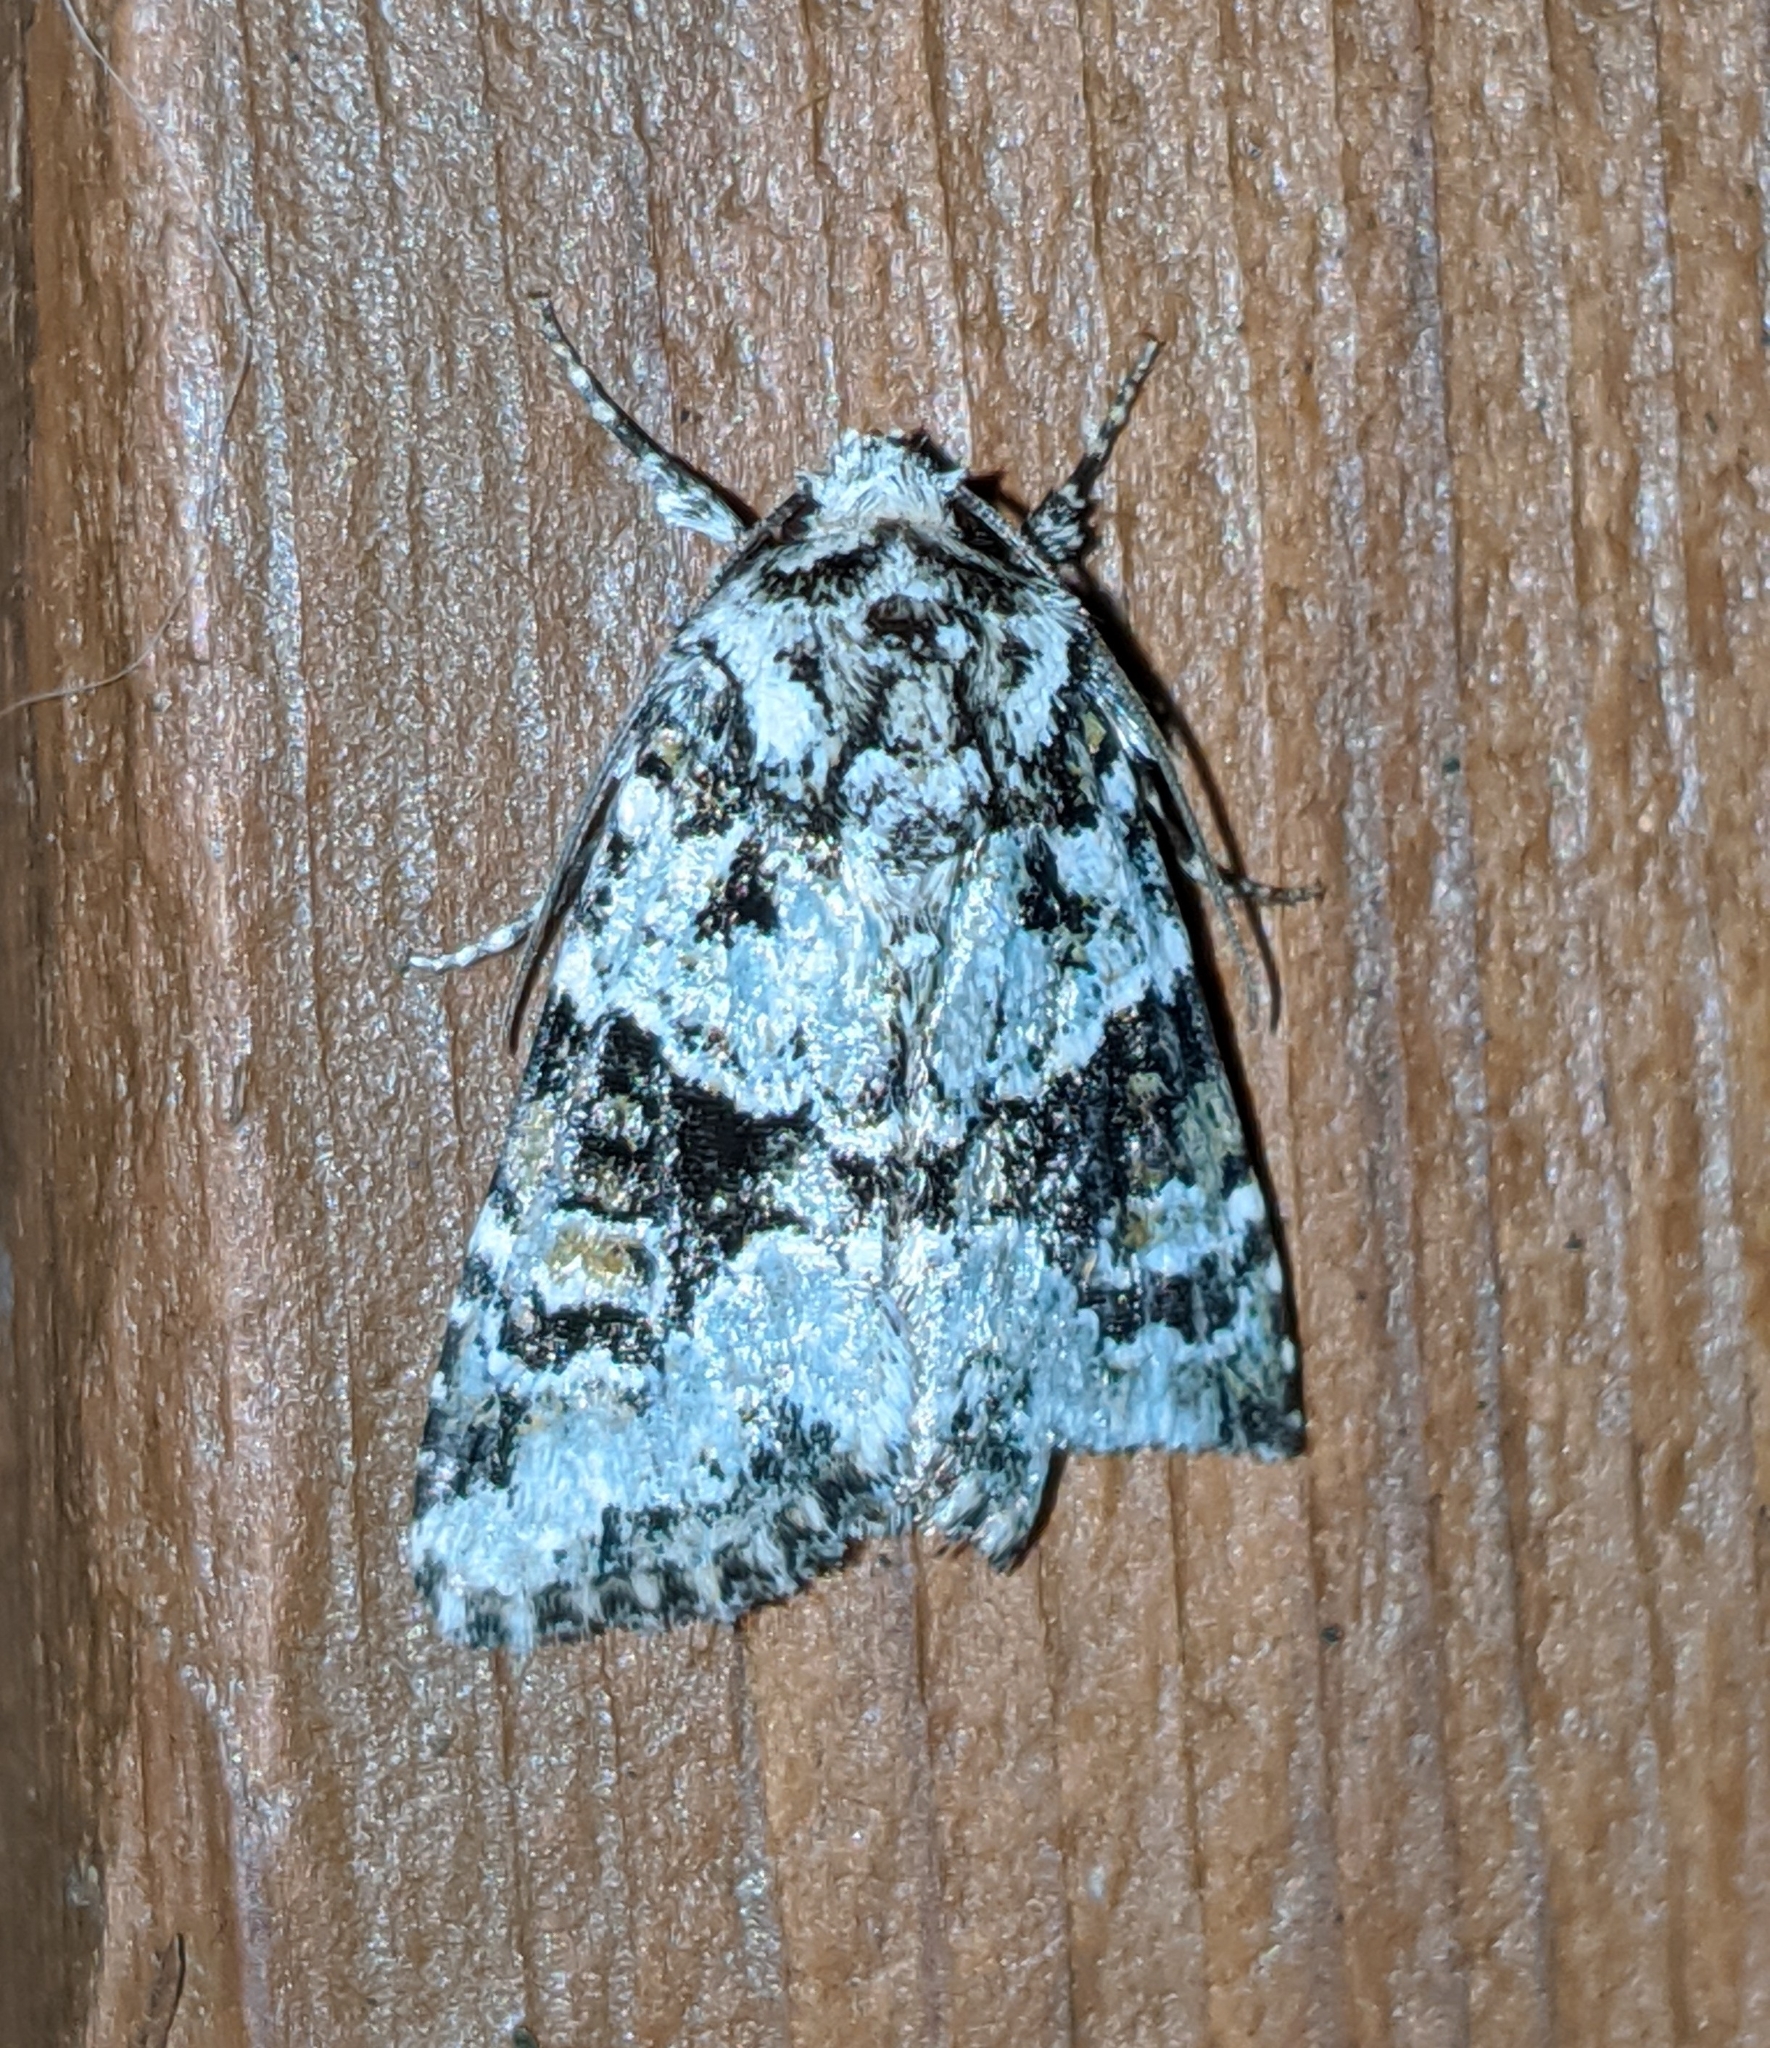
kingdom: Animalia
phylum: Arthropoda
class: Insecta
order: Lepidoptera
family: Noctuidae
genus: Lacinipolia
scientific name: Lacinipolia strigicollis
